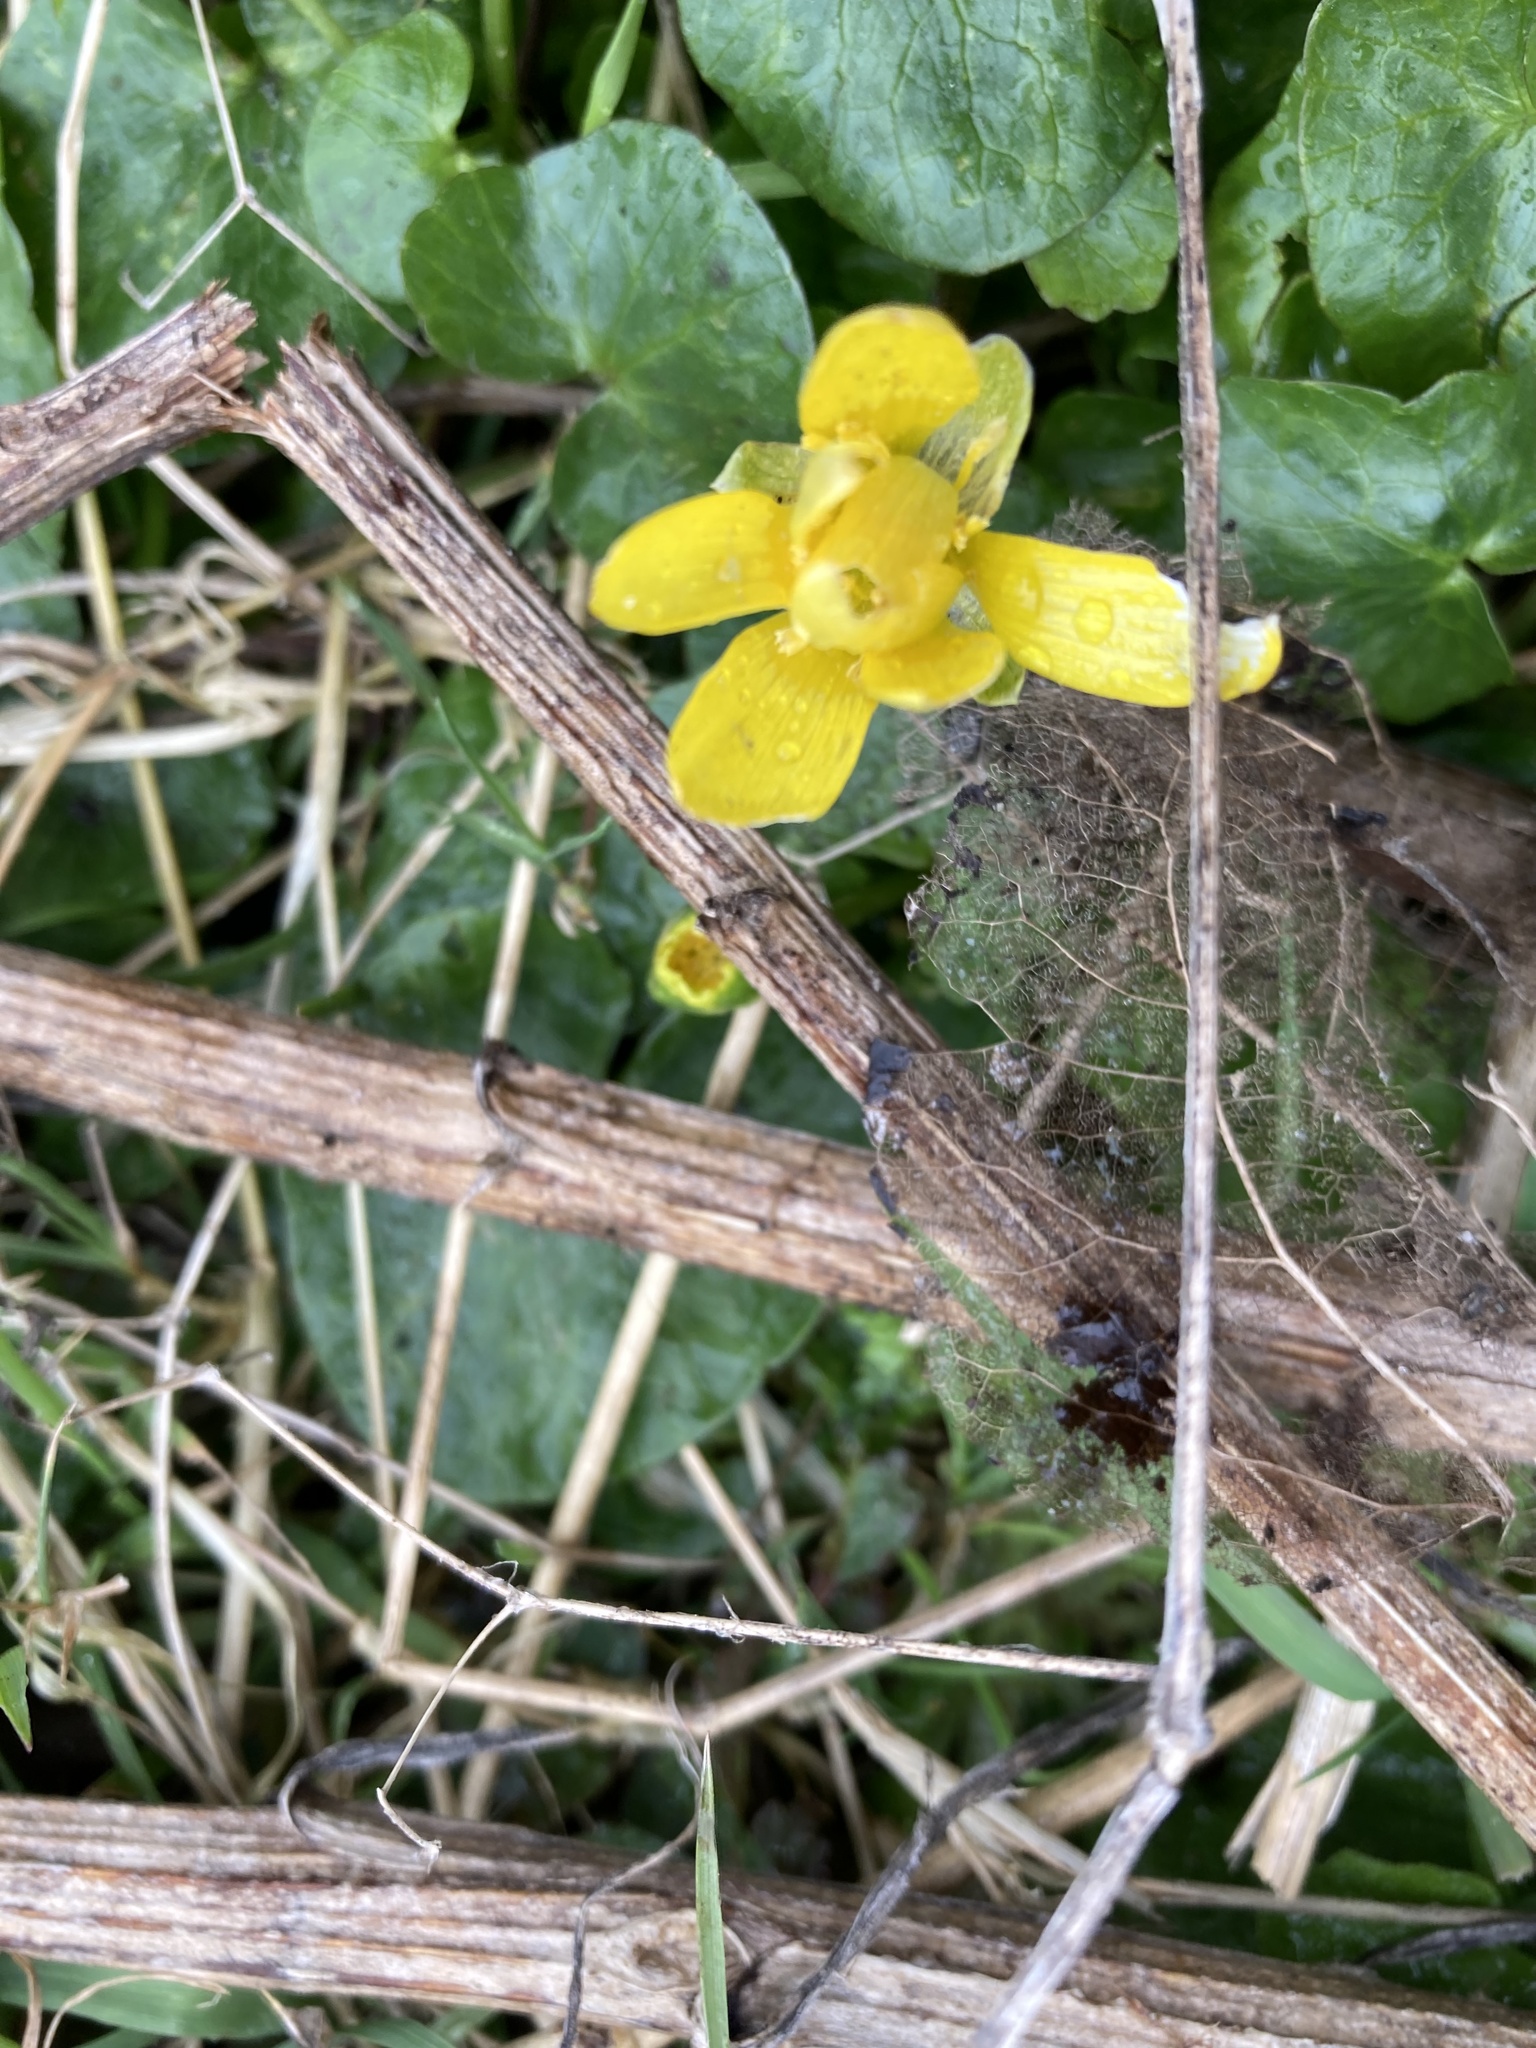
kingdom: Plantae
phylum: Tracheophyta
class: Magnoliopsida
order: Ranunculales
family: Ranunculaceae
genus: Ficaria
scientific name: Ficaria verna
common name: Lesser celandine
